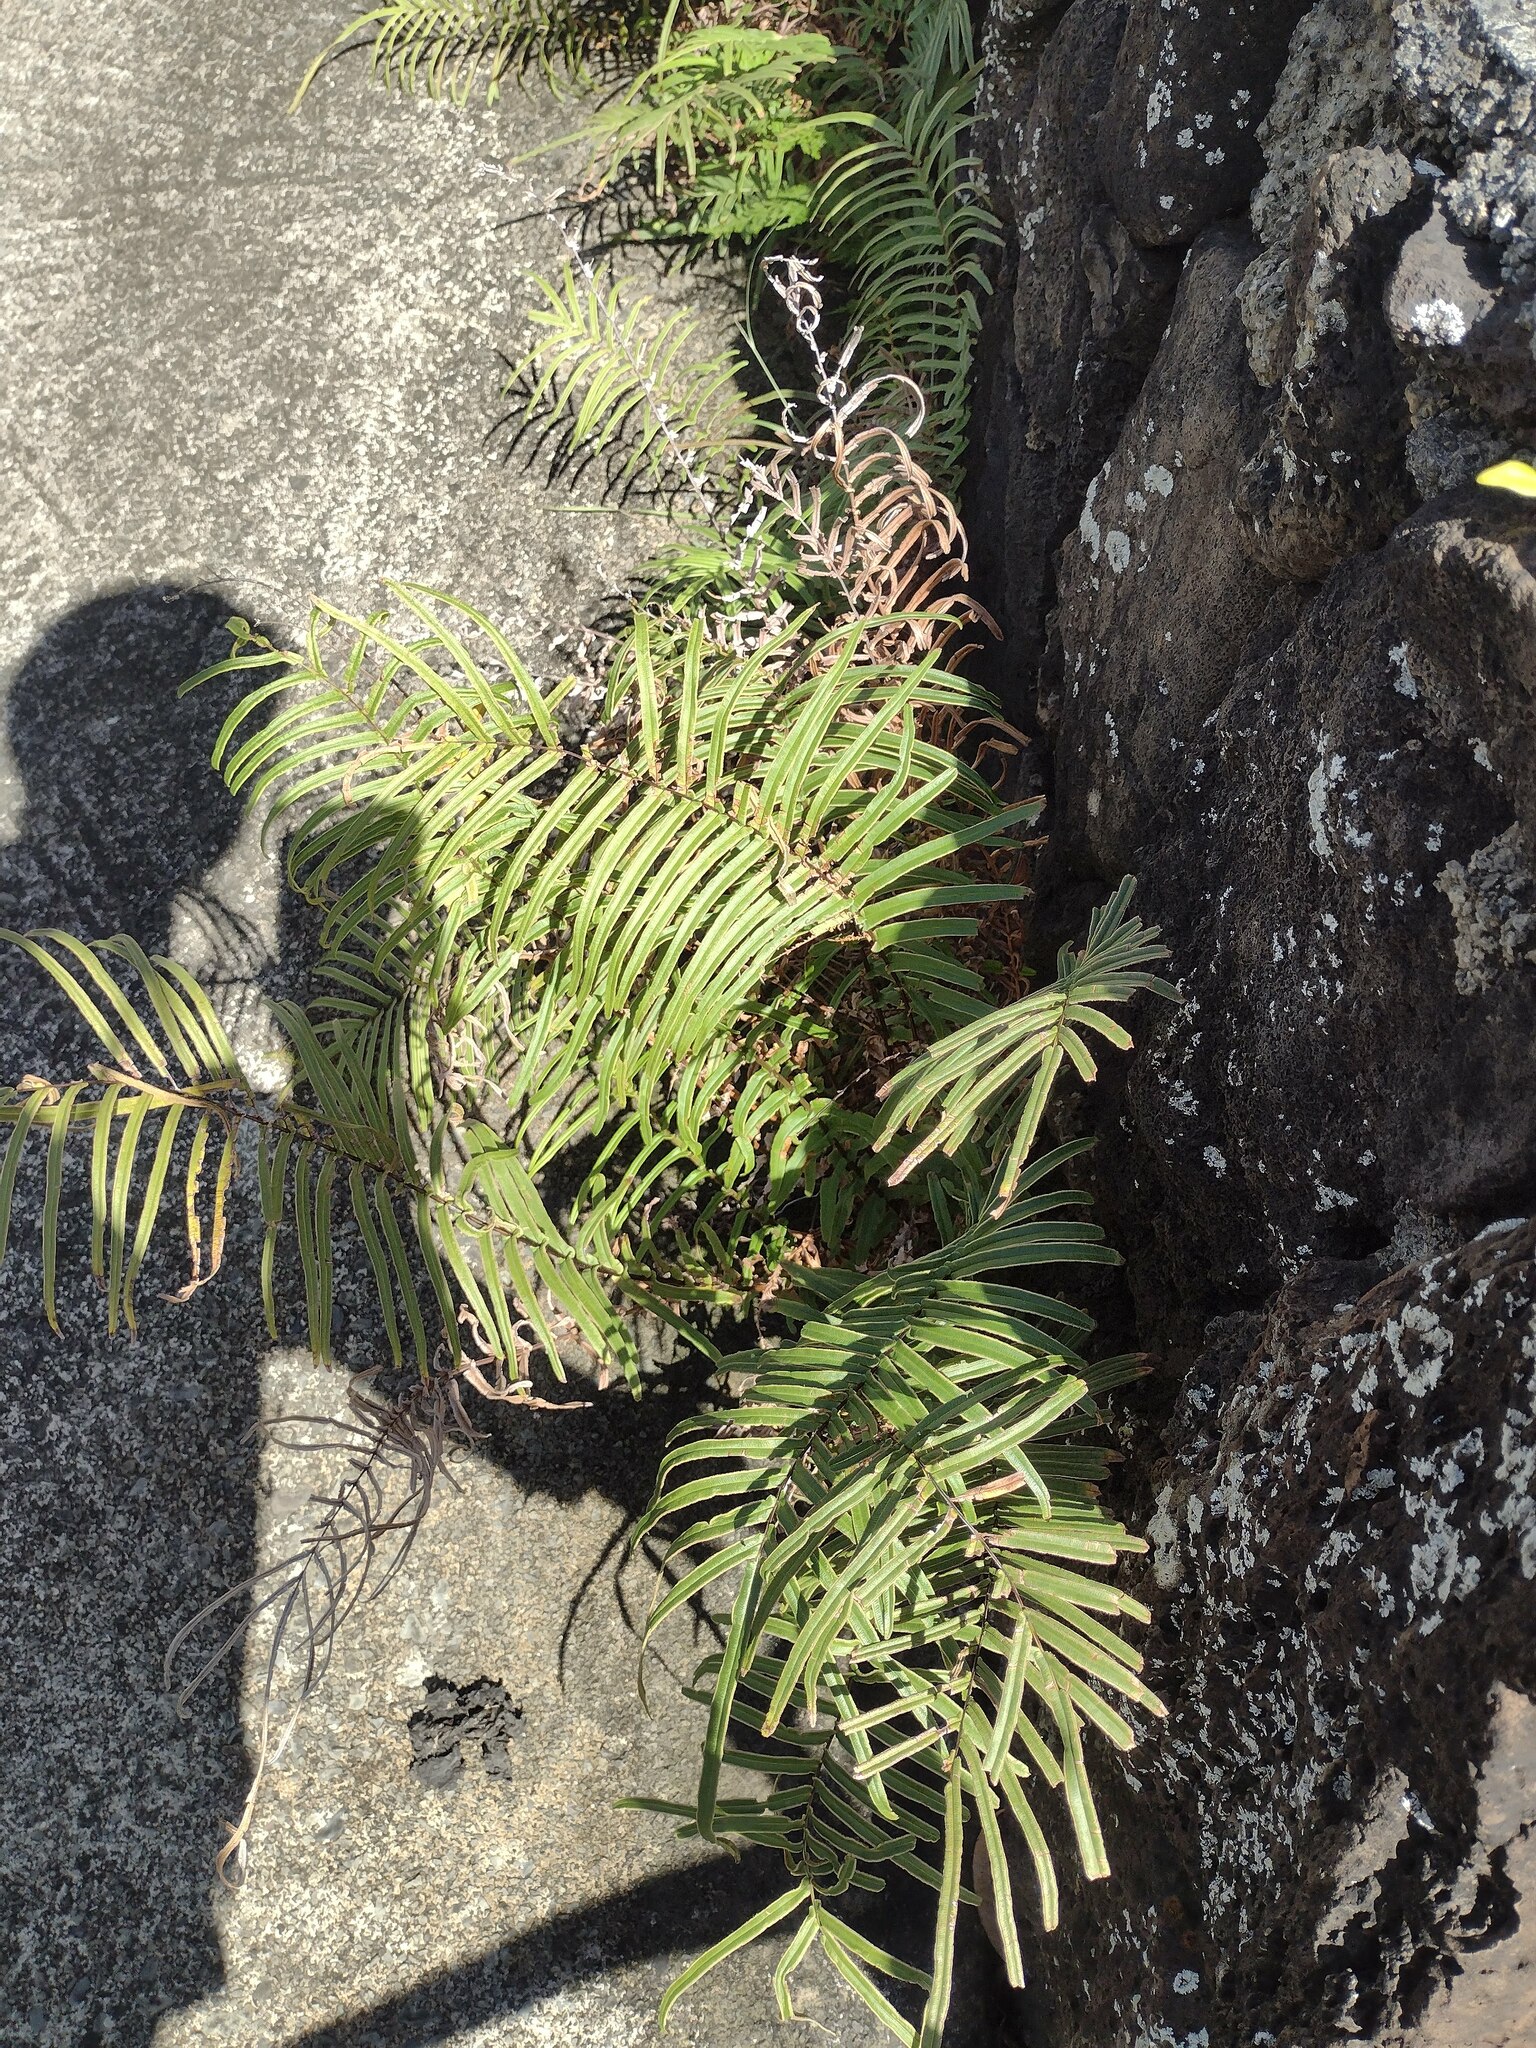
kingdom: Plantae
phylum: Tracheophyta
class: Polypodiopsida
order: Polypodiales
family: Pteridaceae
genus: Pteris
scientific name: Pteris vittata
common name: Ladder brake
